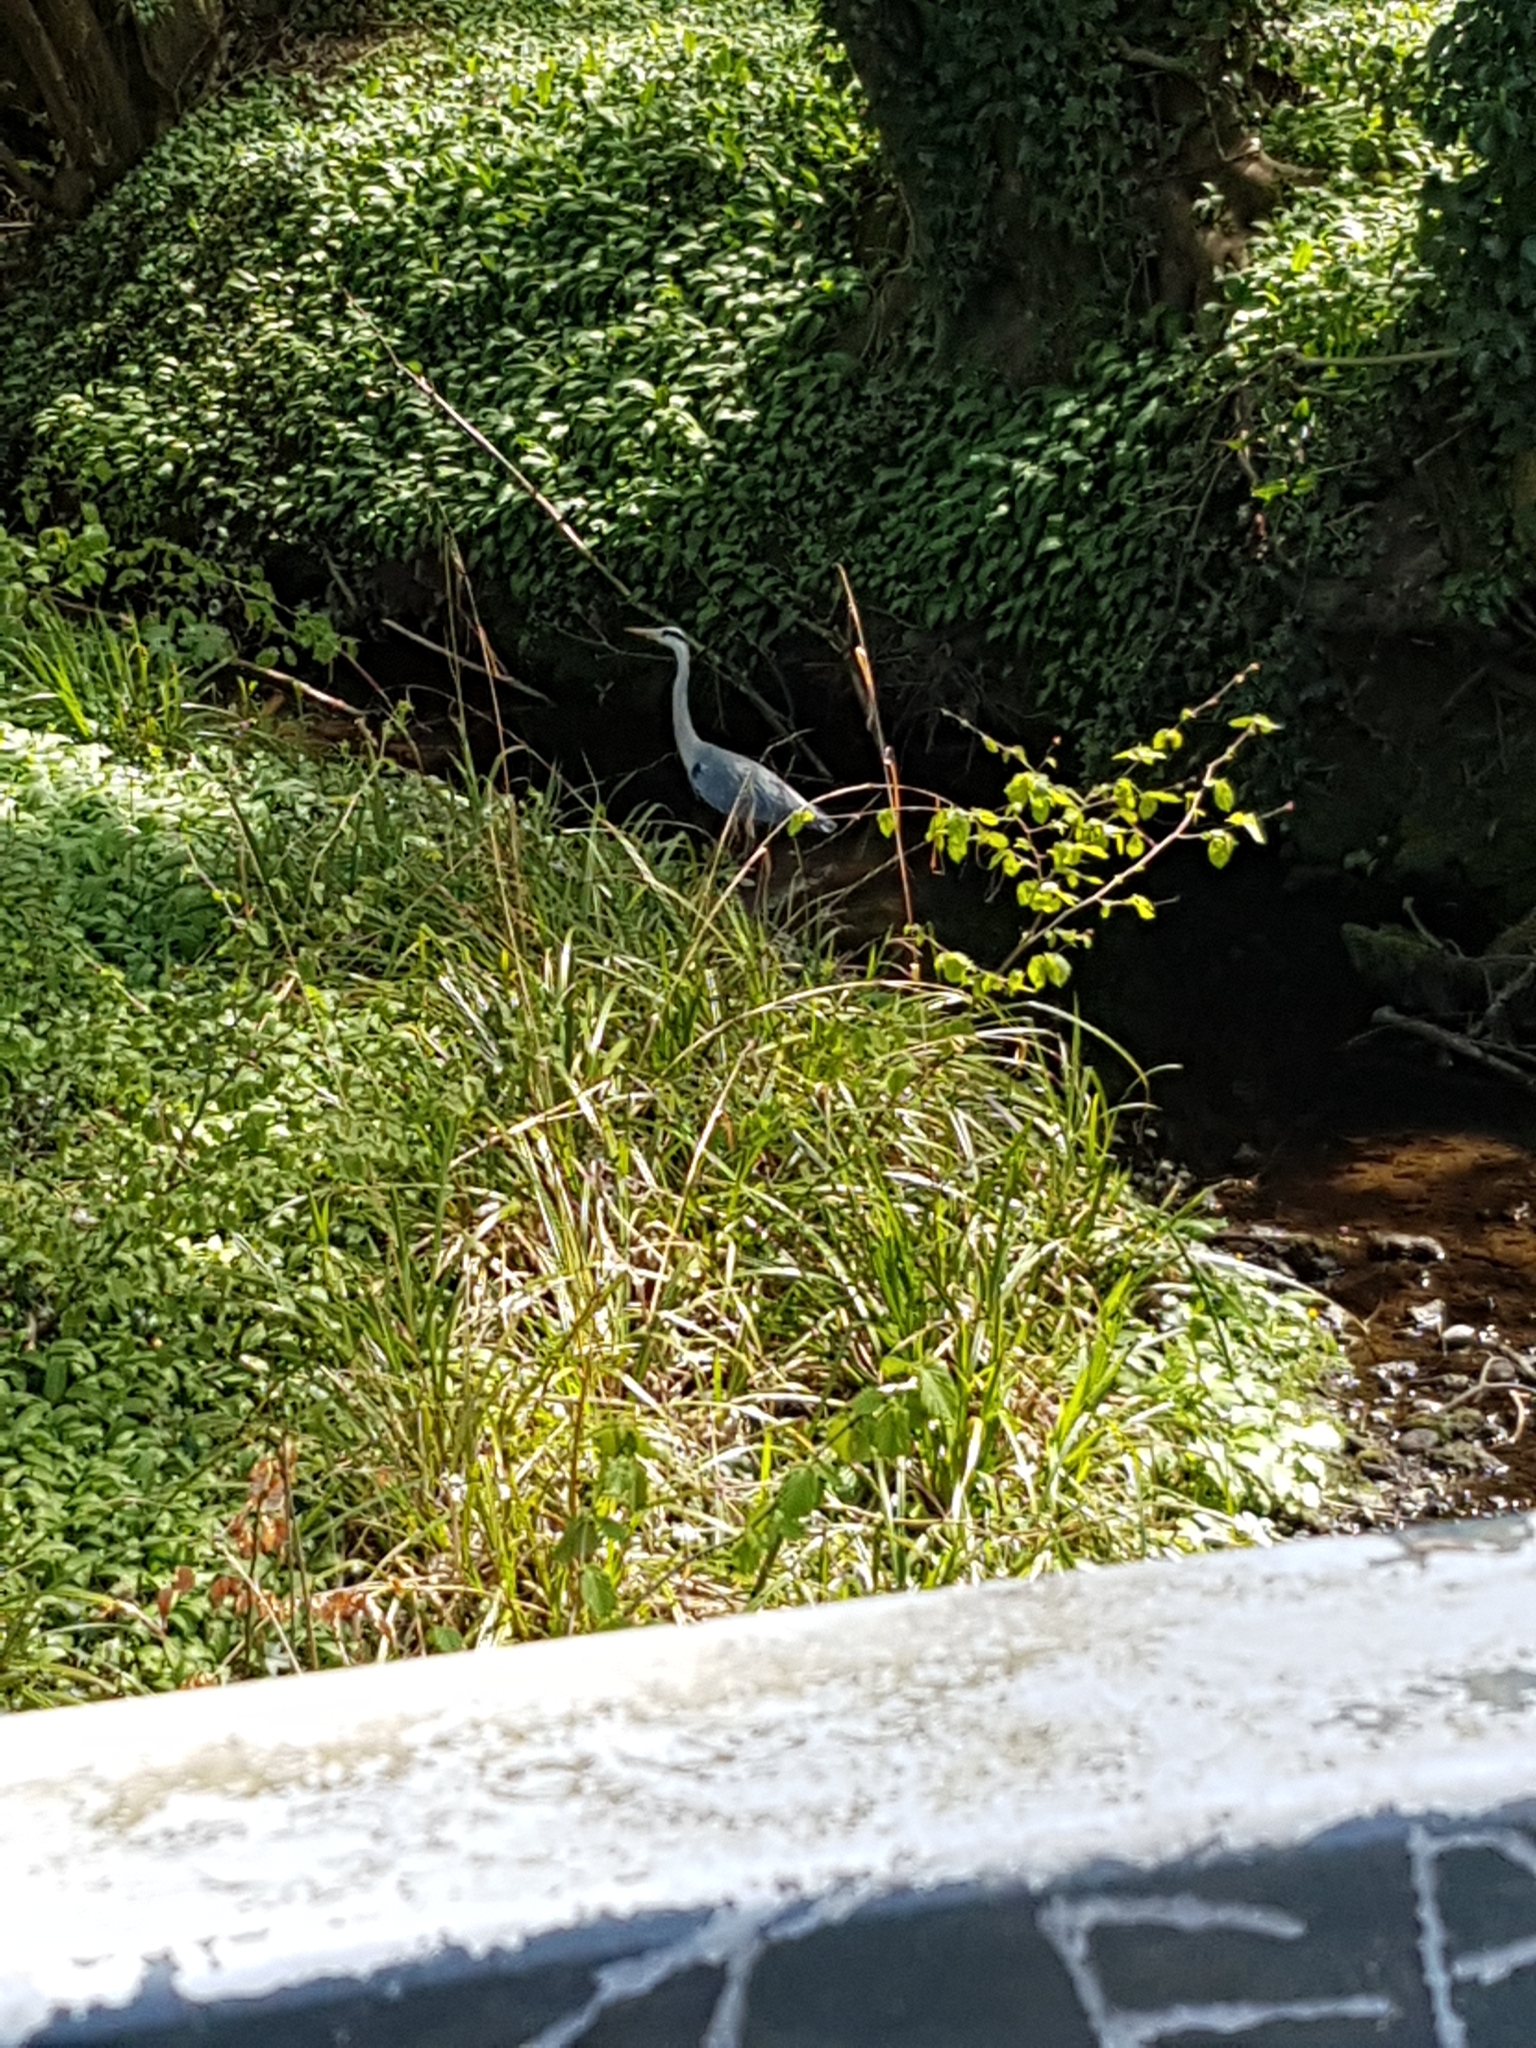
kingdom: Animalia
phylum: Chordata
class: Aves
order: Pelecaniformes
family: Ardeidae
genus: Ardea
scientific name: Ardea cinerea
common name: Grey heron
